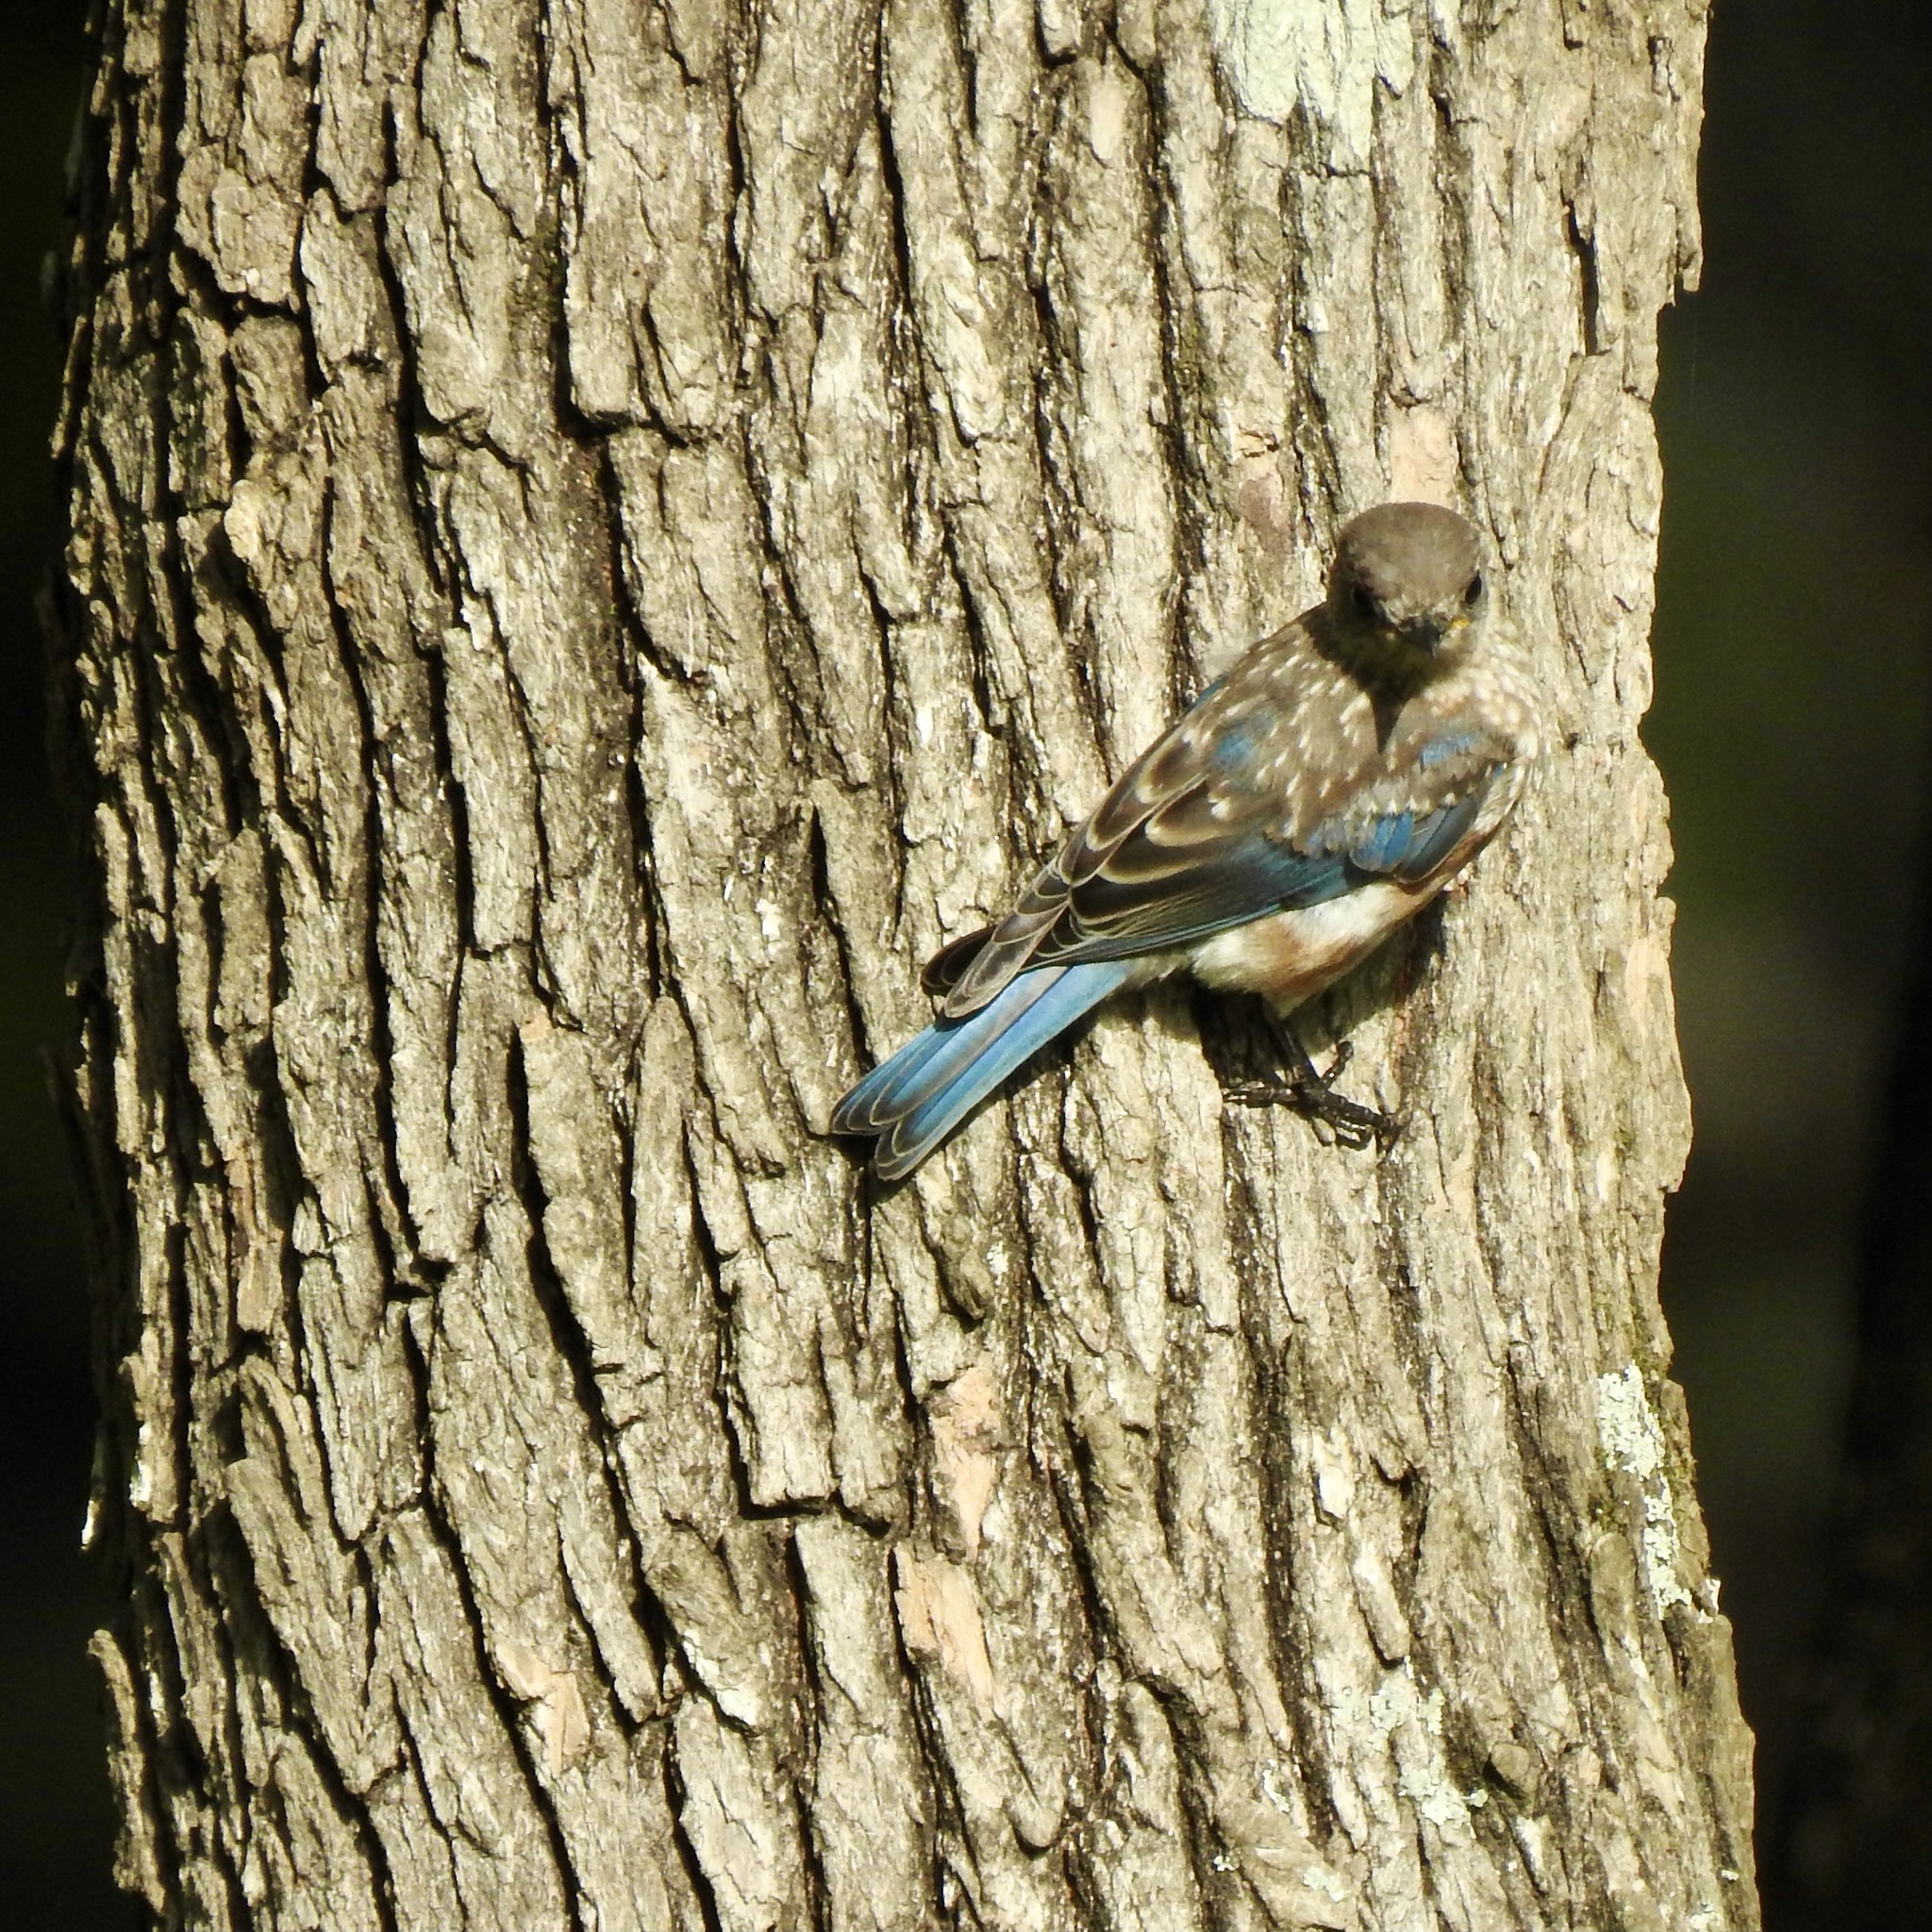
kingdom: Animalia
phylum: Chordata
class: Aves
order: Passeriformes
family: Turdidae
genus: Sialia
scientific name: Sialia sialis
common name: Eastern bluebird
